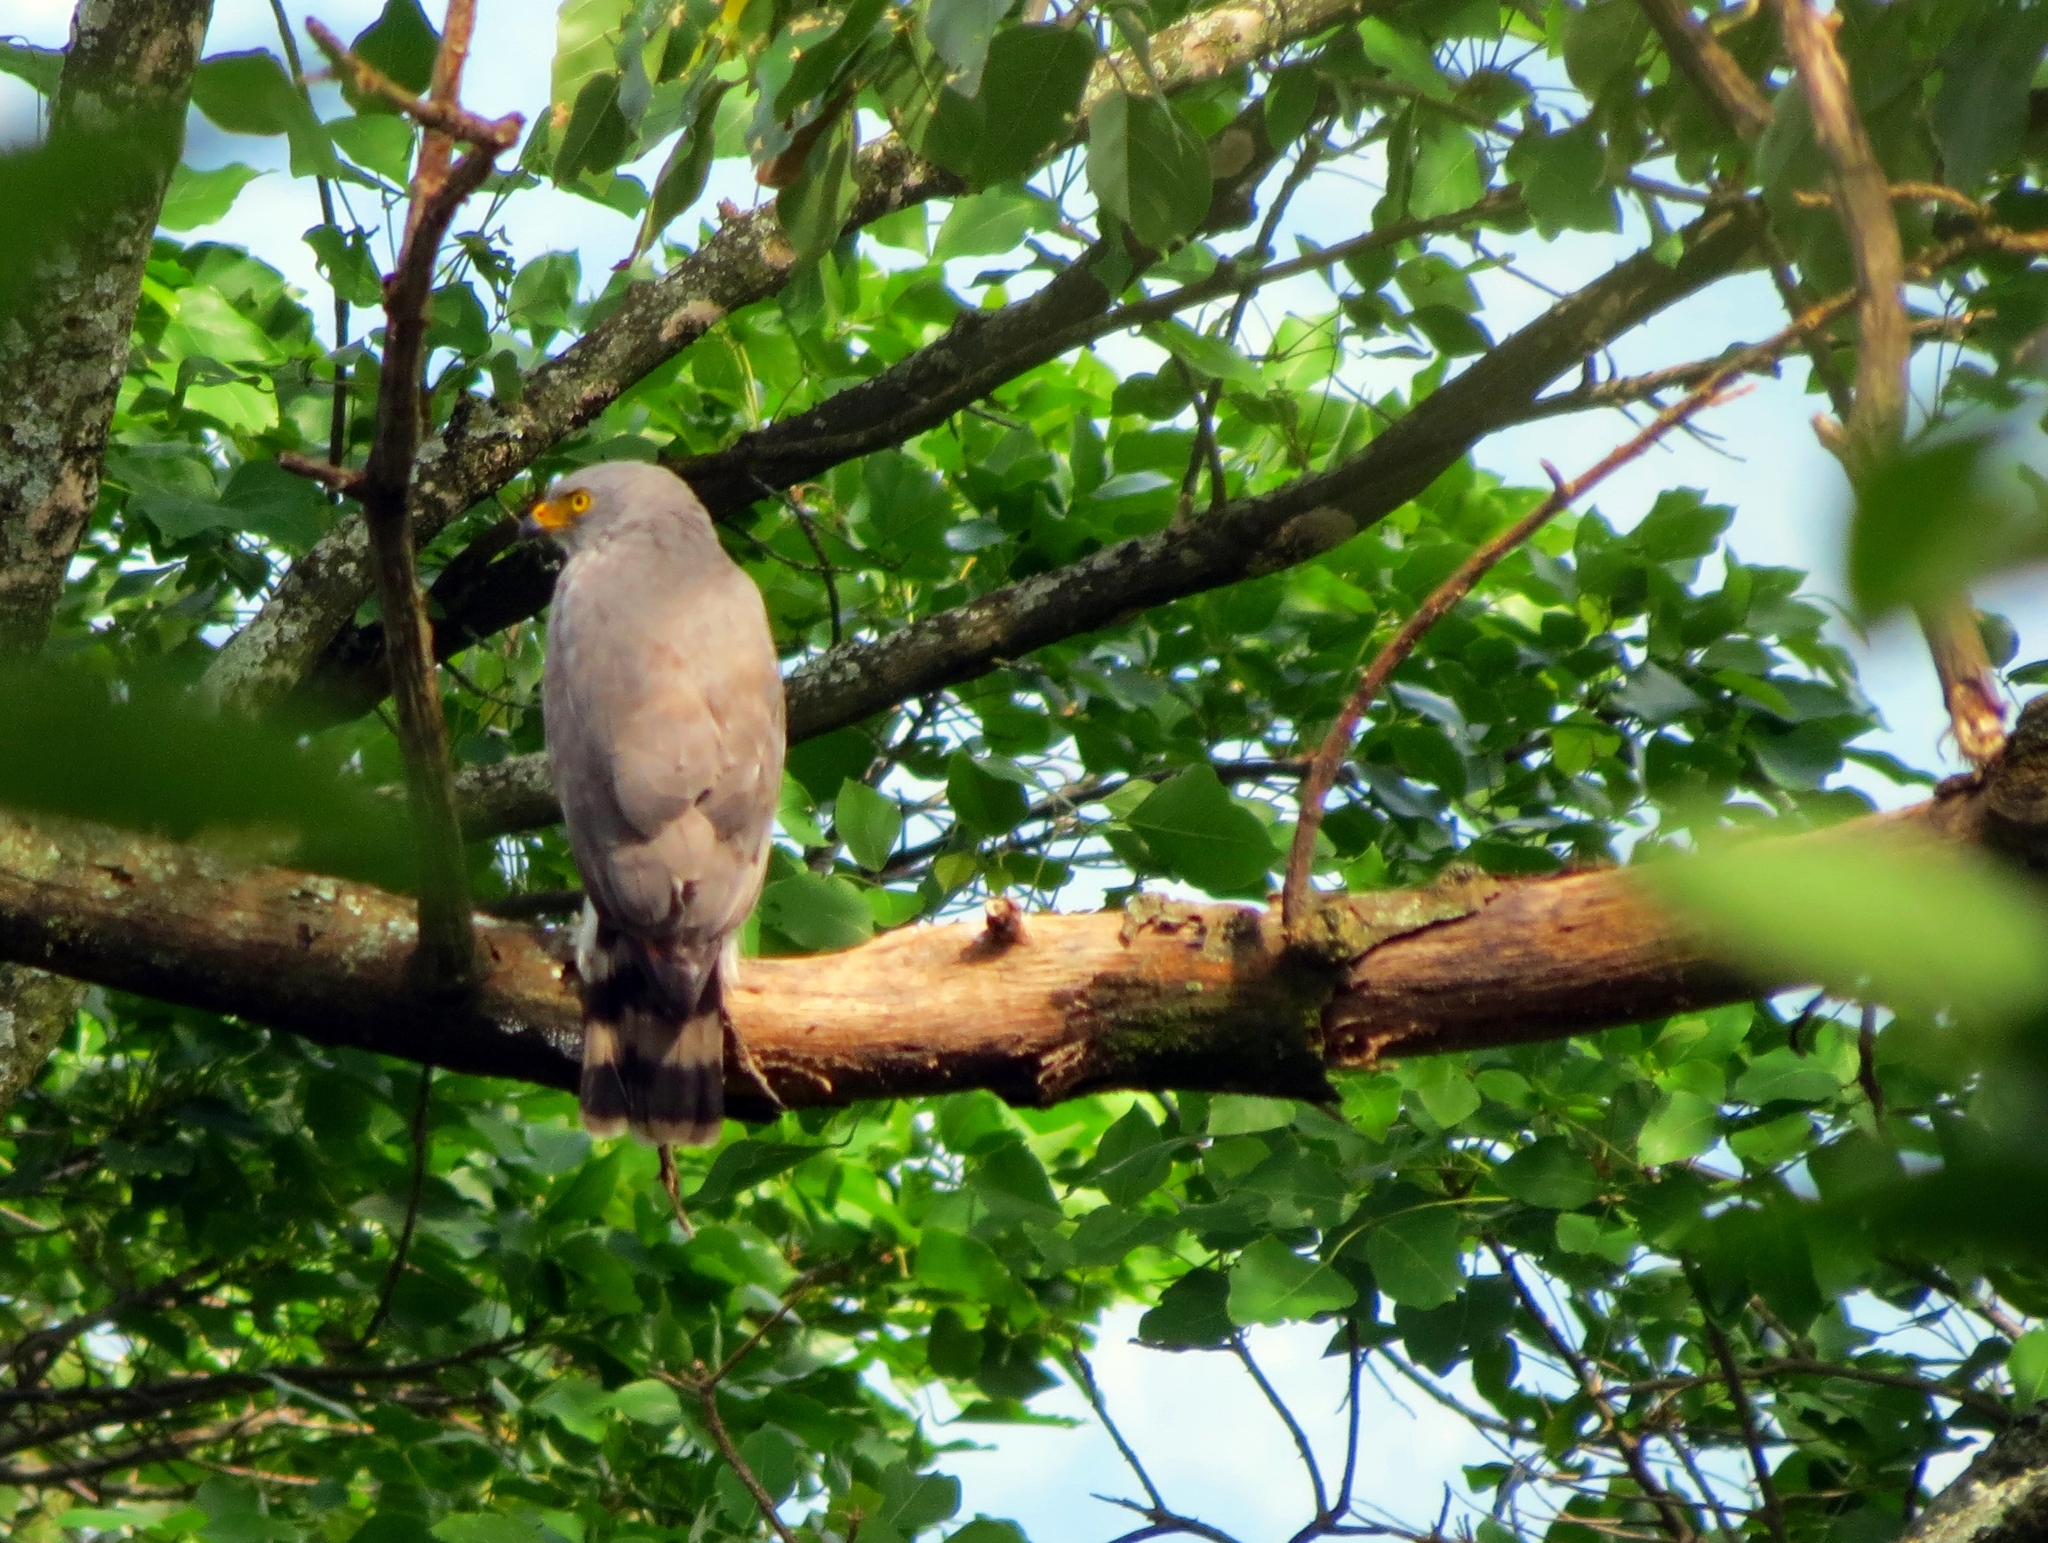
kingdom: Animalia
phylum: Chordata
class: Aves
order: Accipitriformes
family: Accipitridae
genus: Rupornis
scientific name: Rupornis magnirostris
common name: Roadside hawk
